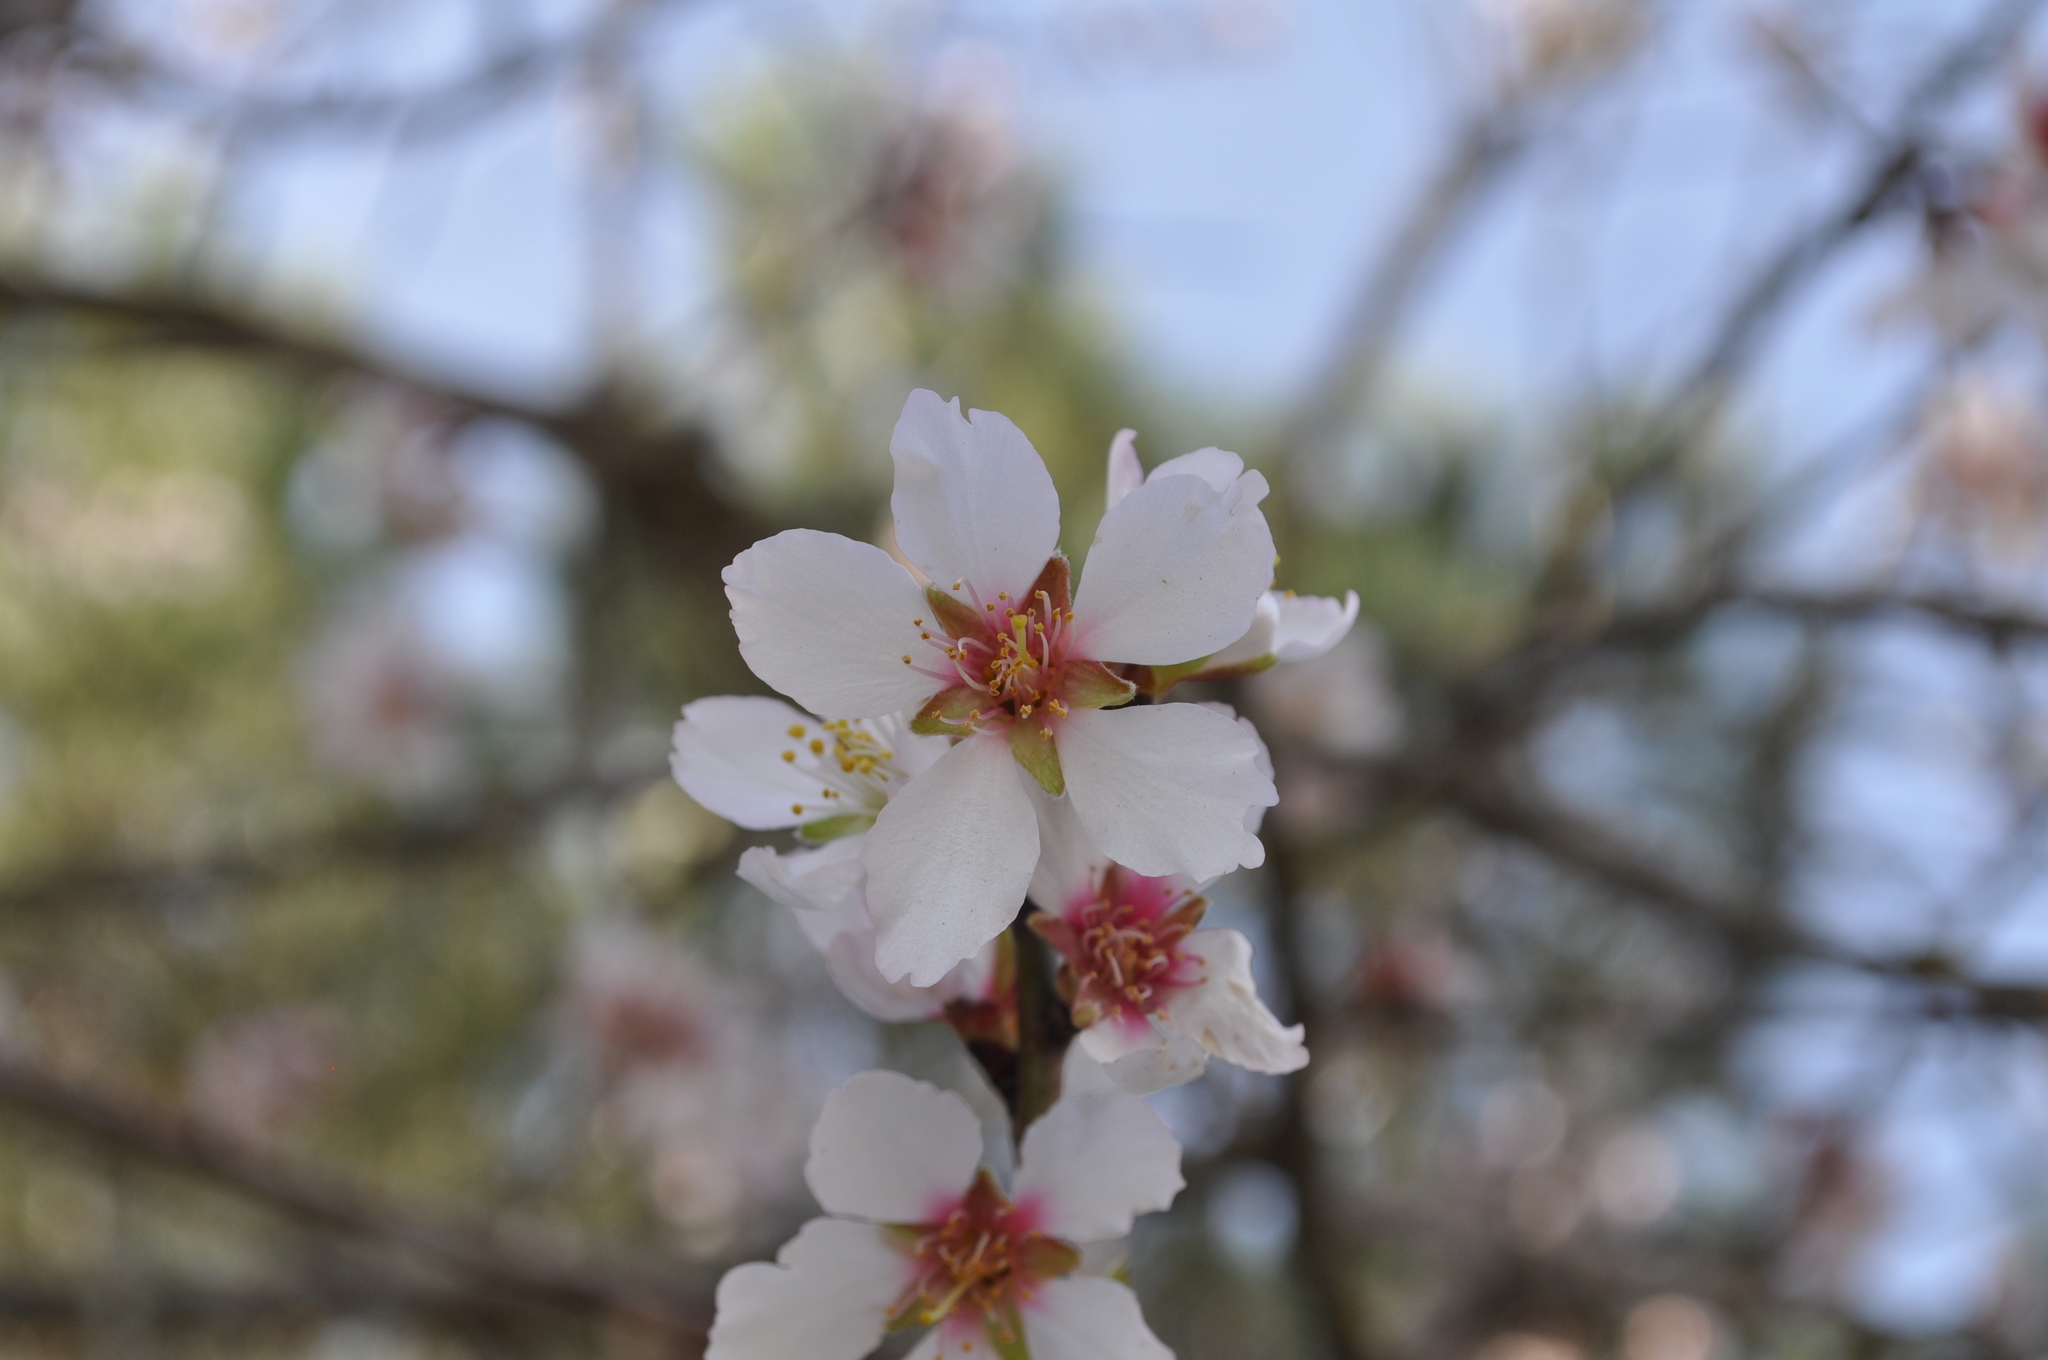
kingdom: Plantae
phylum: Tracheophyta
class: Magnoliopsida
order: Rosales
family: Rosaceae
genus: Prunus
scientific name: Prunus amygdalus
